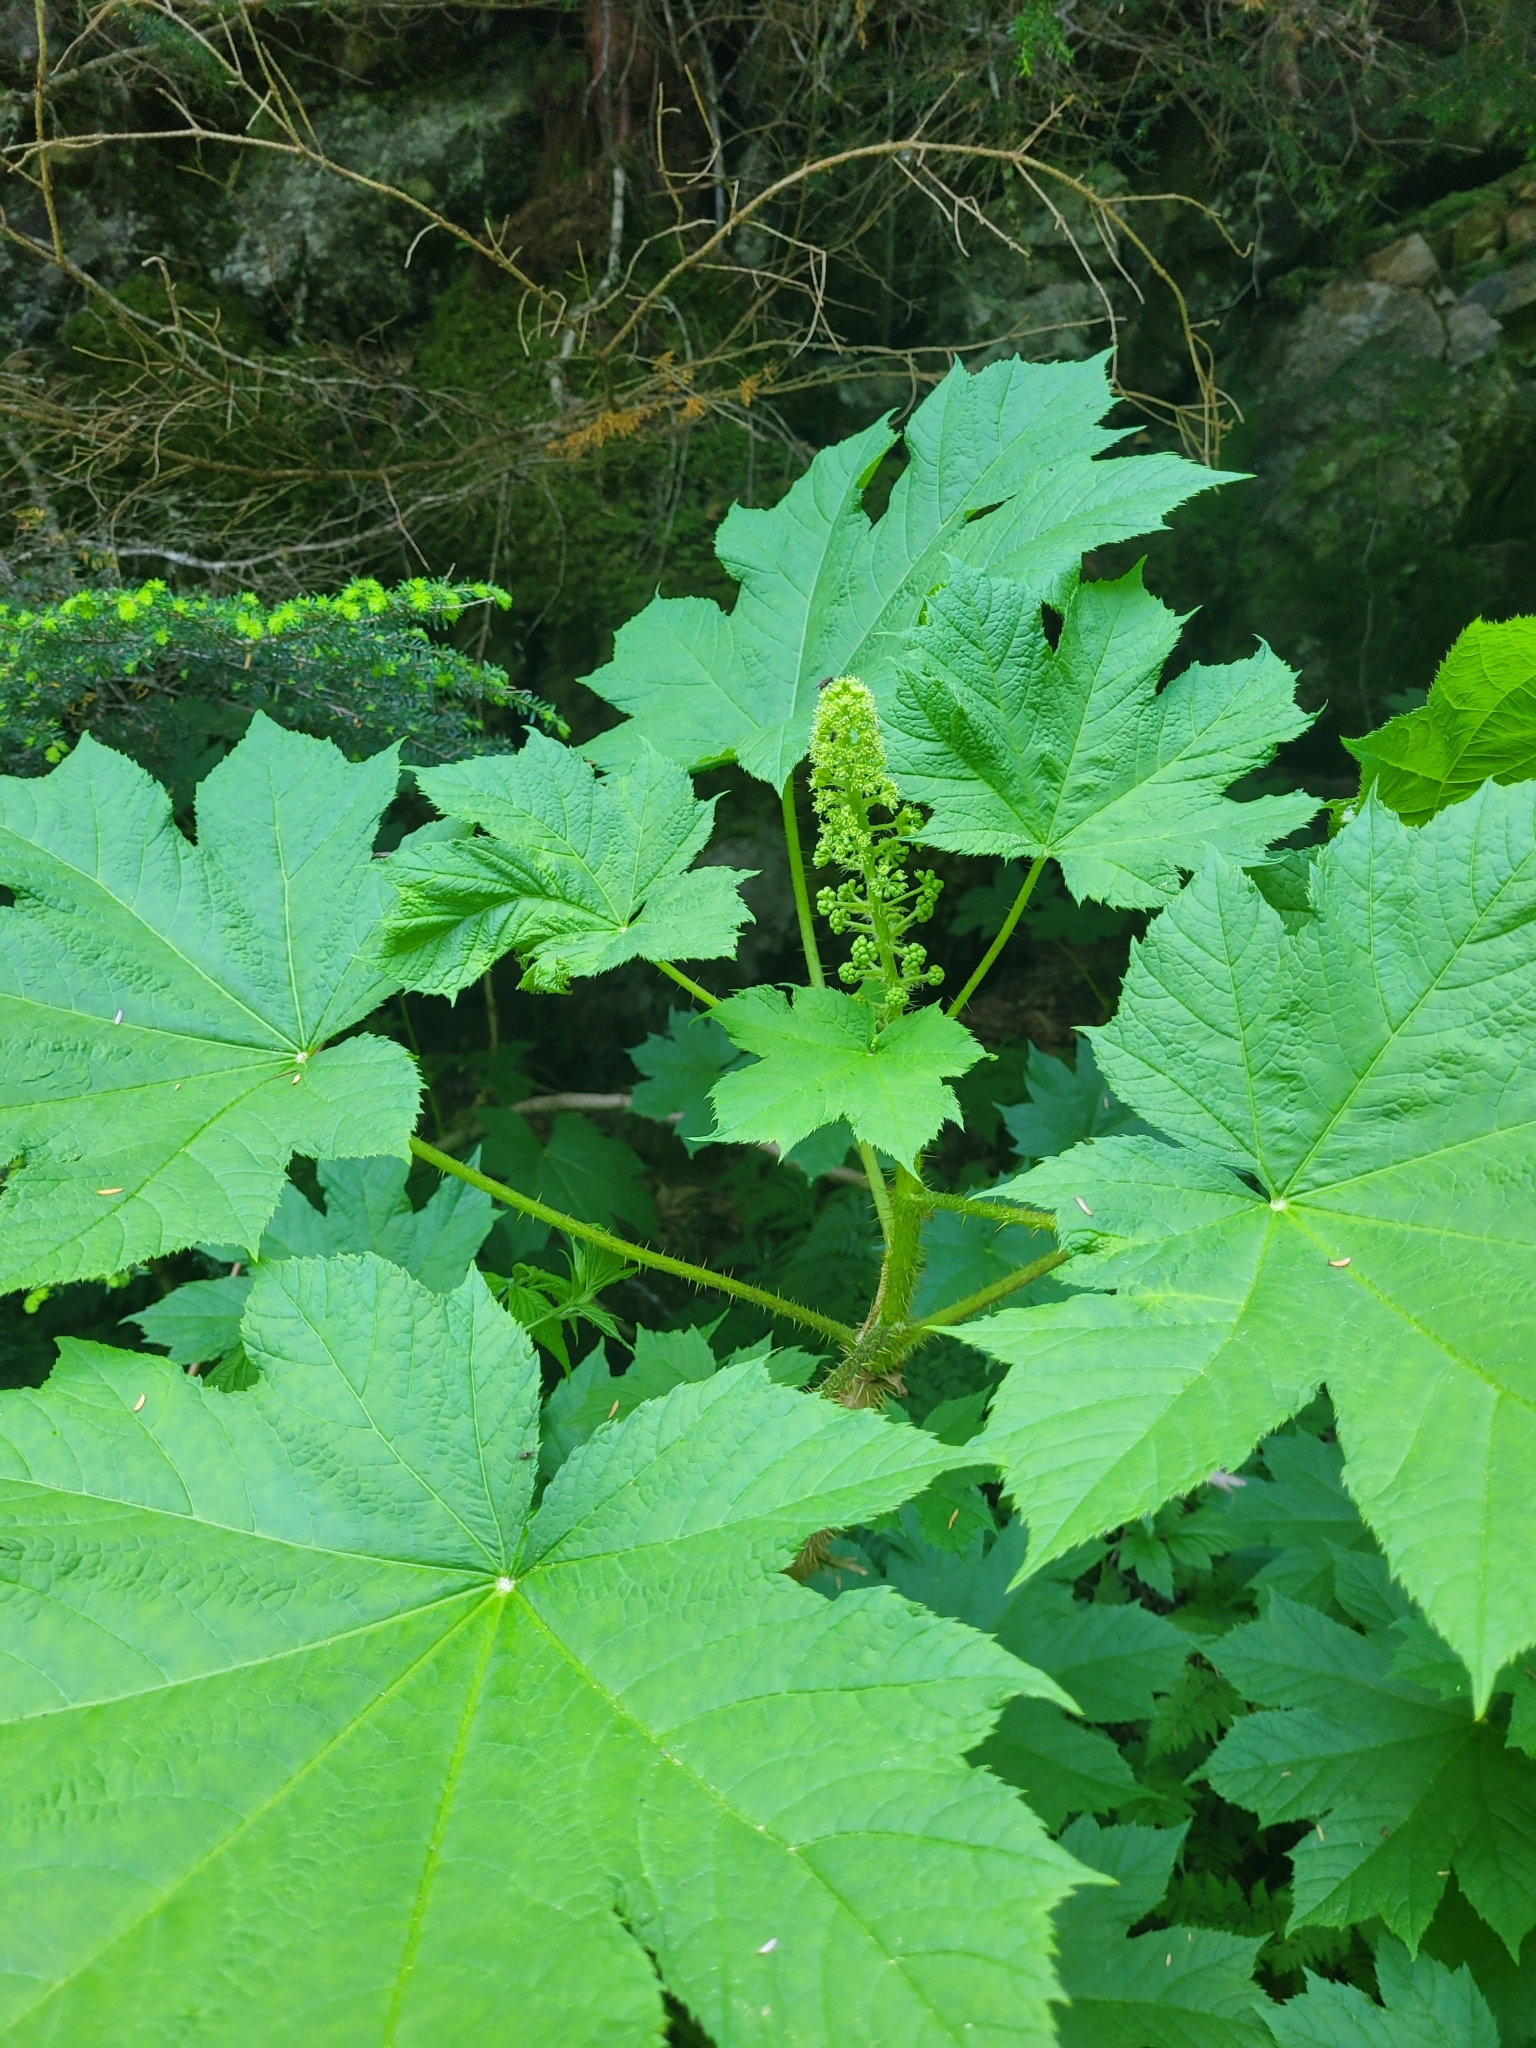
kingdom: Plantae
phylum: Tracheophyta
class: Magnoliopsida
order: Apiales
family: Araliaceae
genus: Oplopanax
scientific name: Oplopanax horridus
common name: Devil's walking-stick
